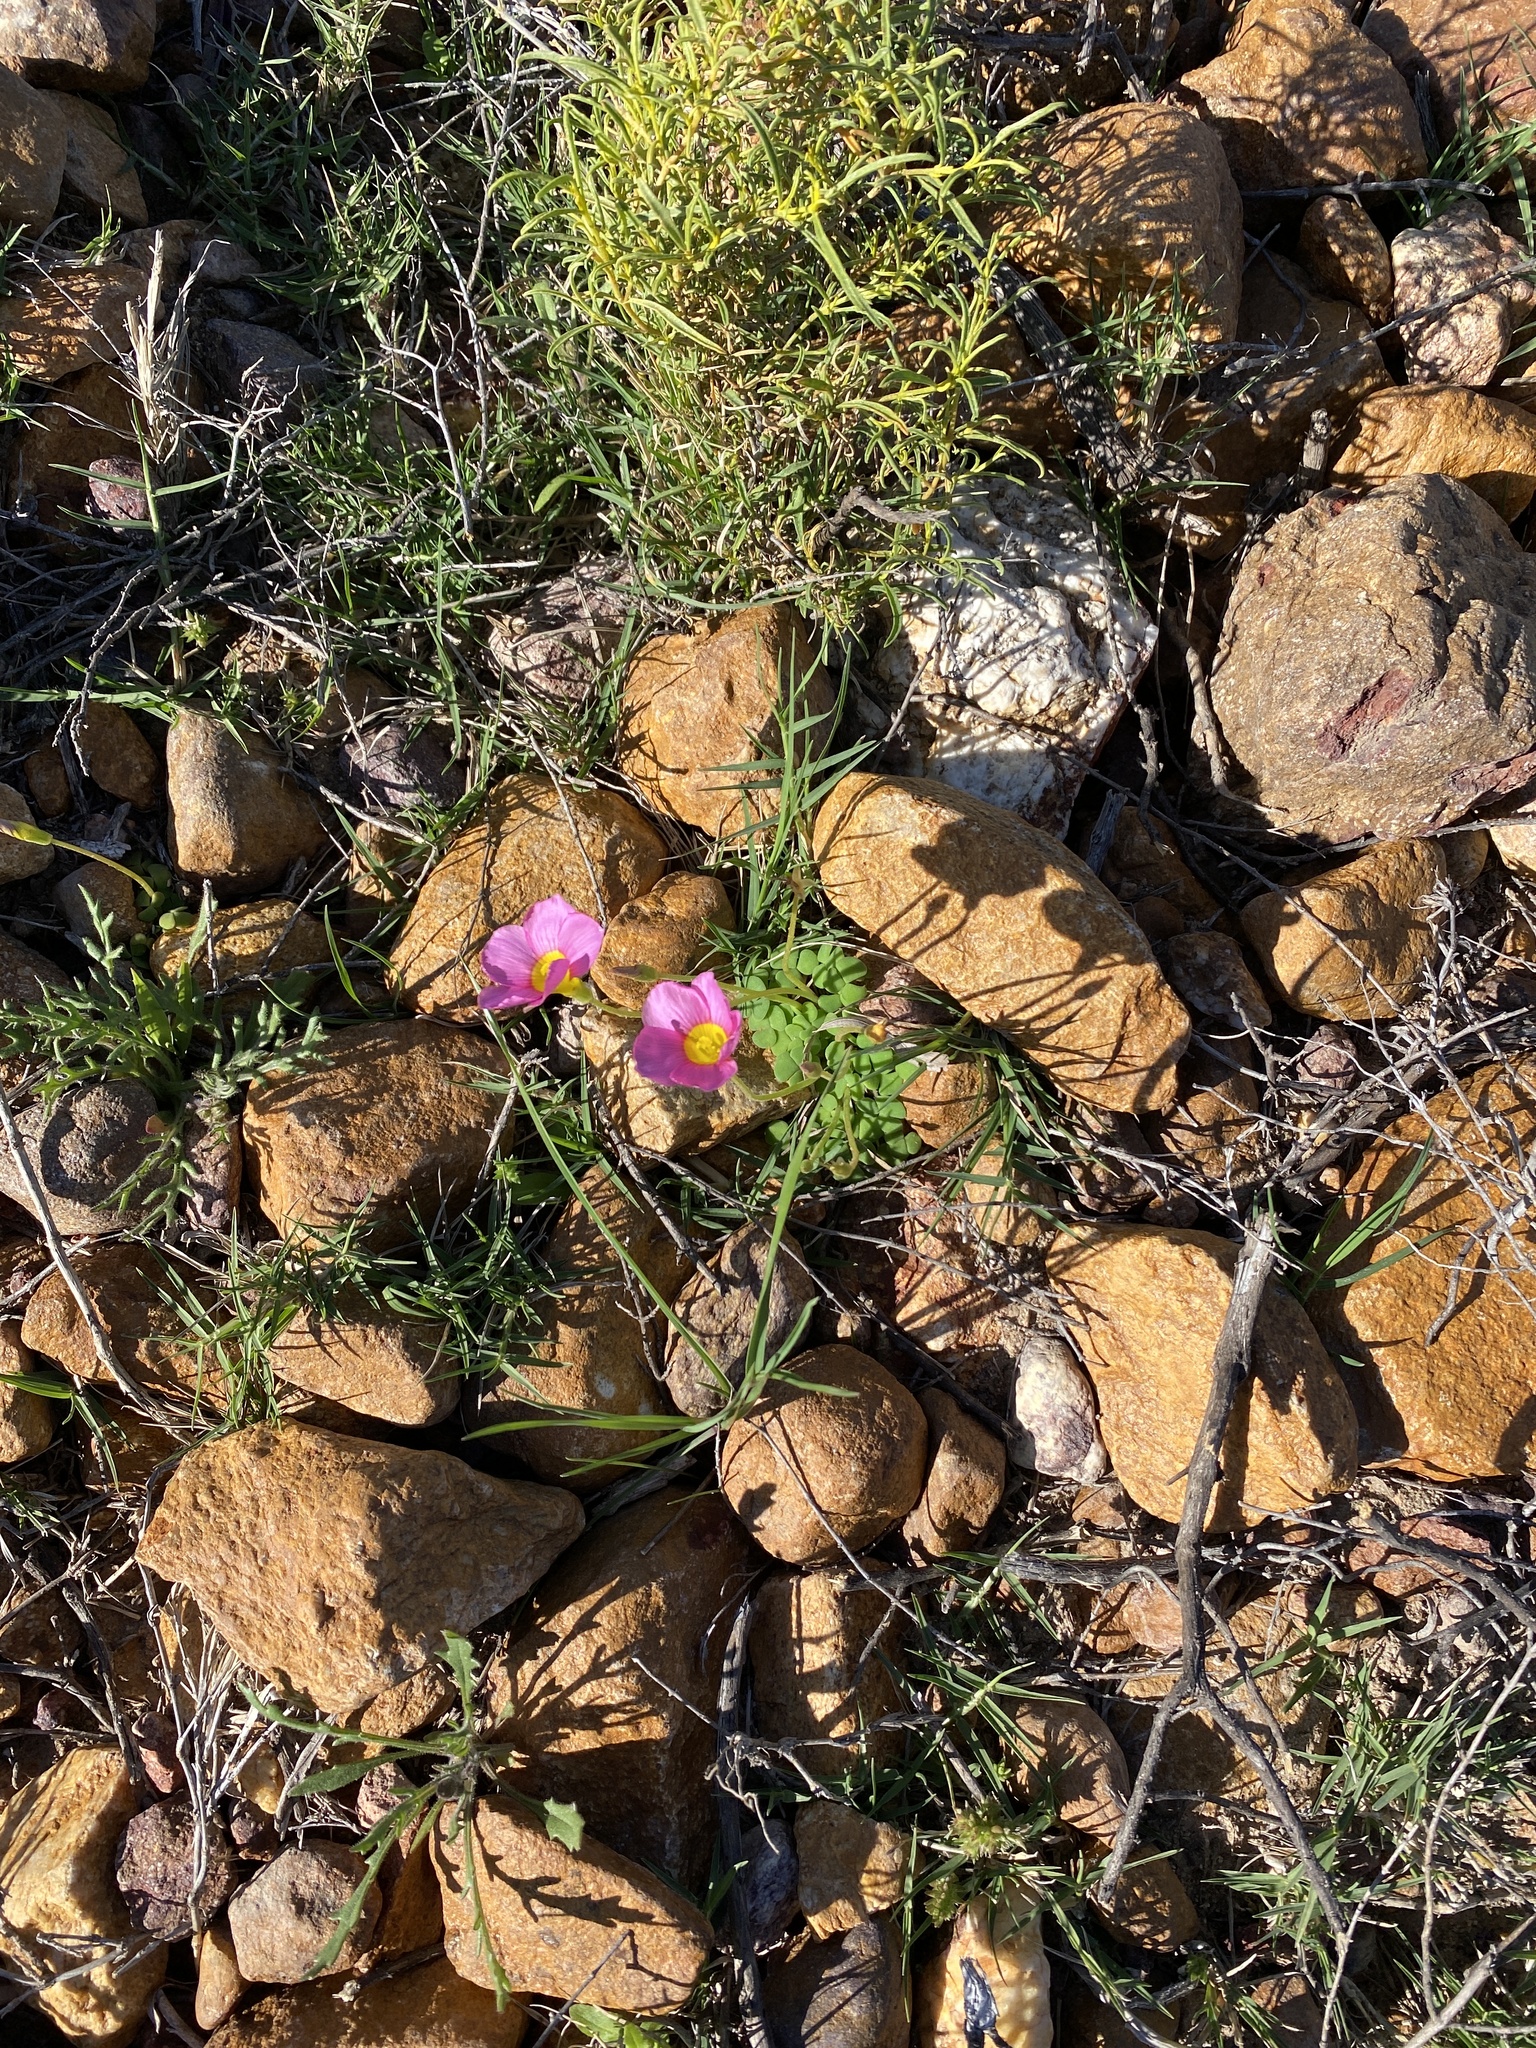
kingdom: Plantae
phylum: Tracheophyta
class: Magnoliopsida
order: Oxalidales
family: Oxalidaceae
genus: Oxalis
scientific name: Oxalis fergusoniae
